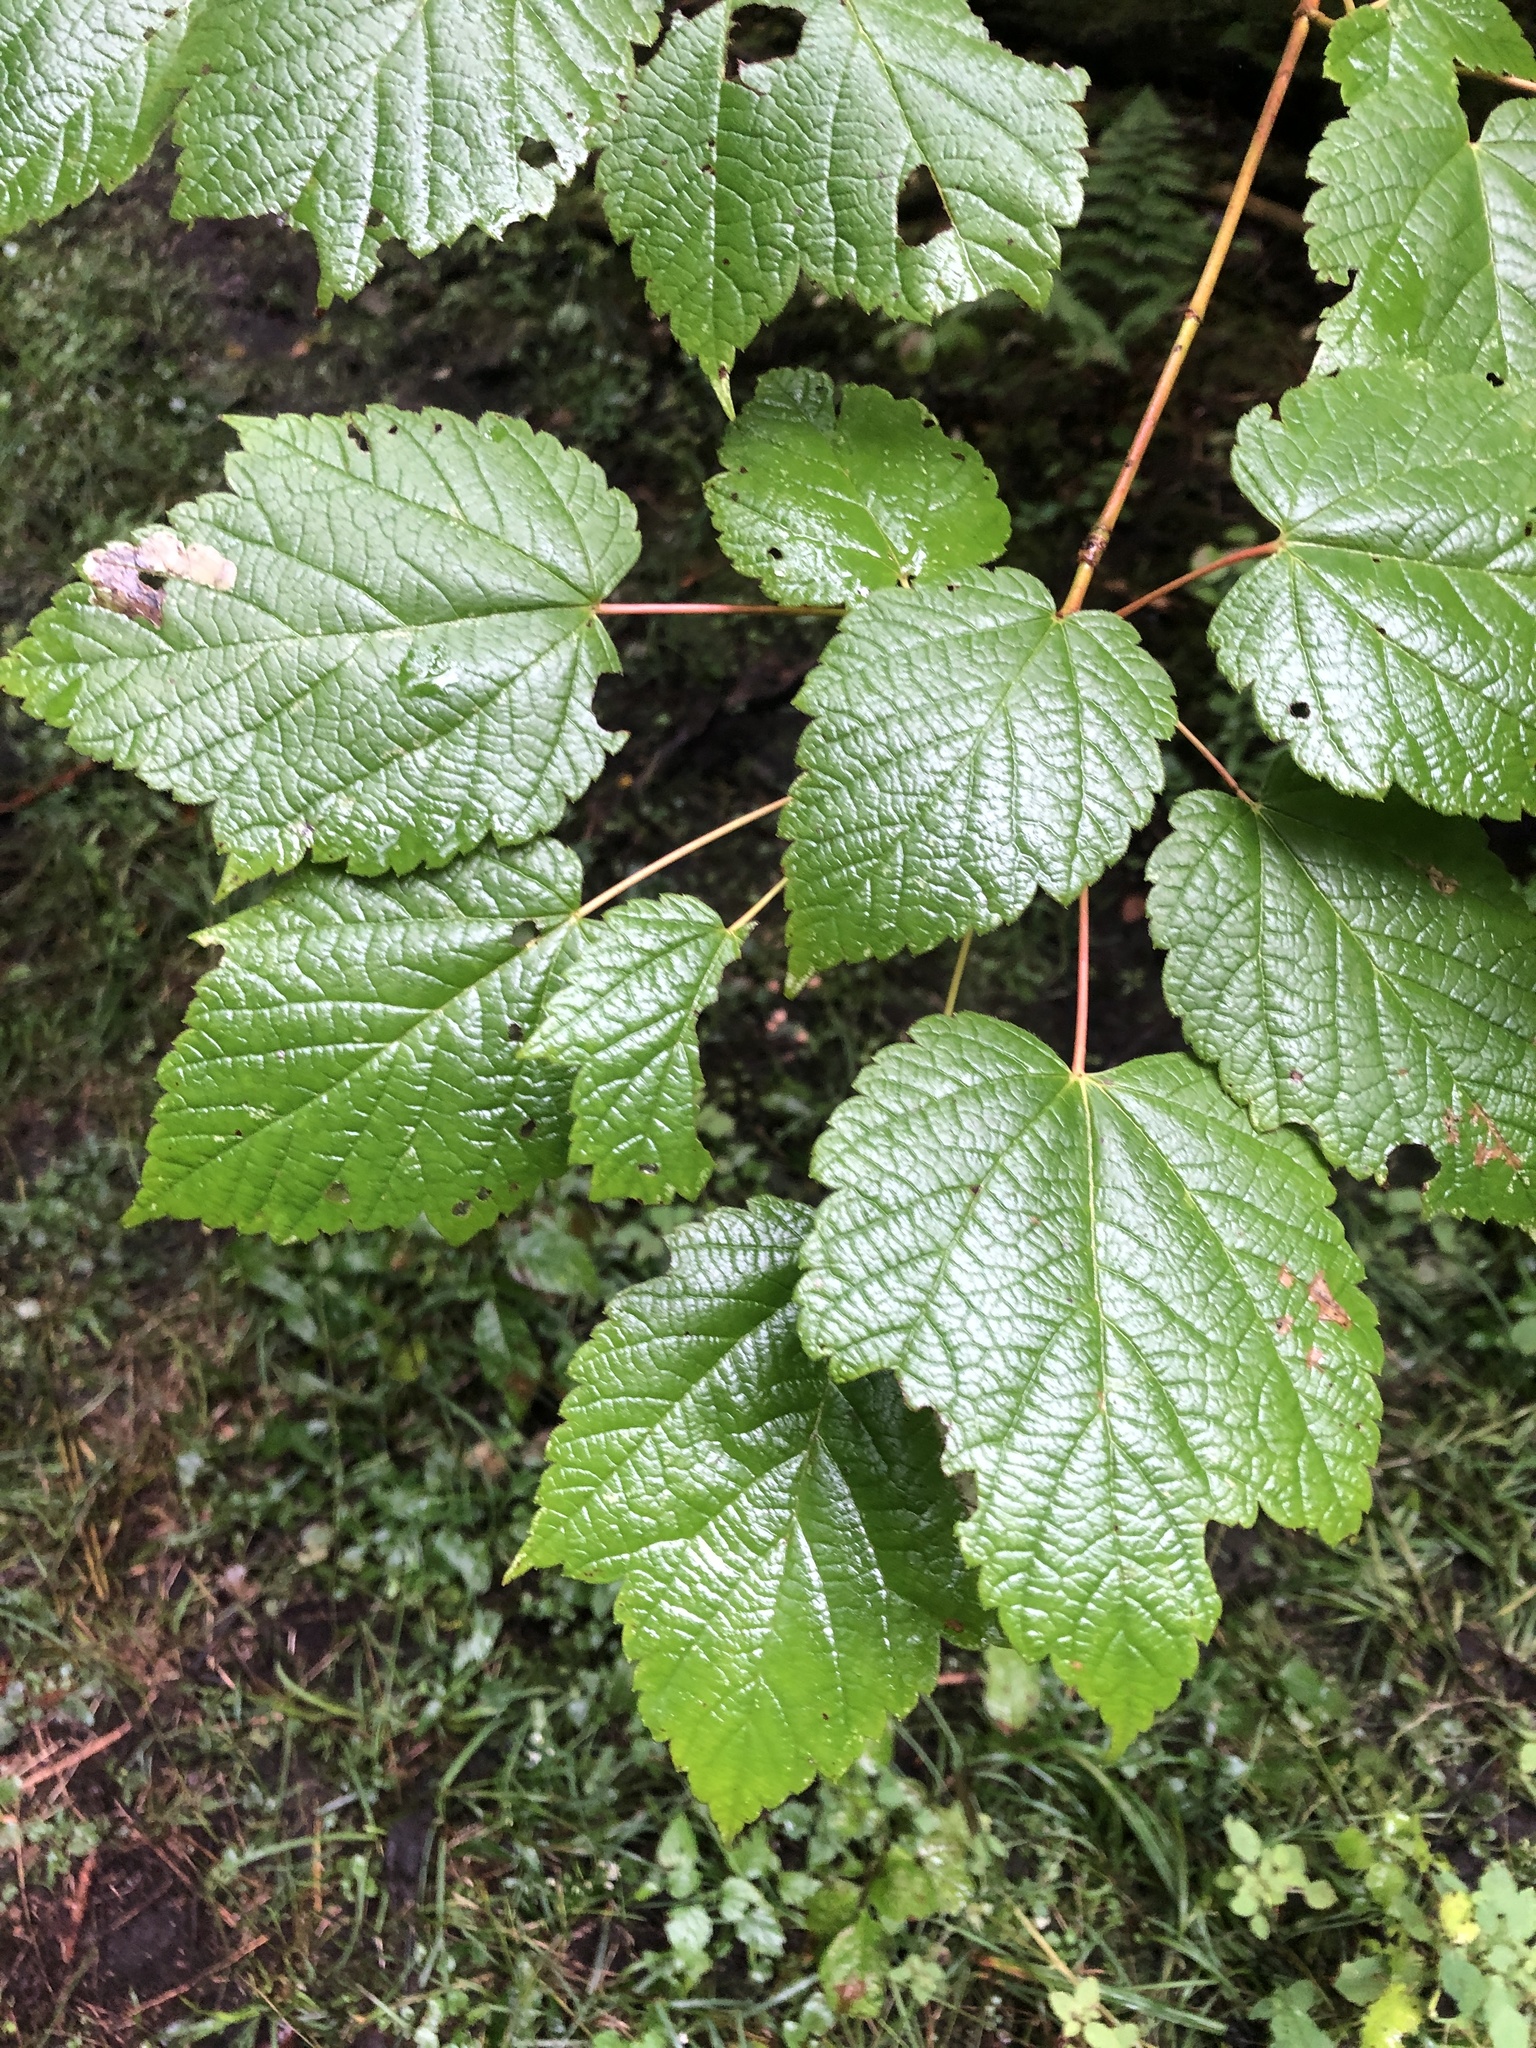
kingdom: Plantae
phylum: Tracheophyta
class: Magnoliopsida
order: Sapindales
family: Sapindaceae
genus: Acer
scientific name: Acer spicatum
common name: Mountain maple
